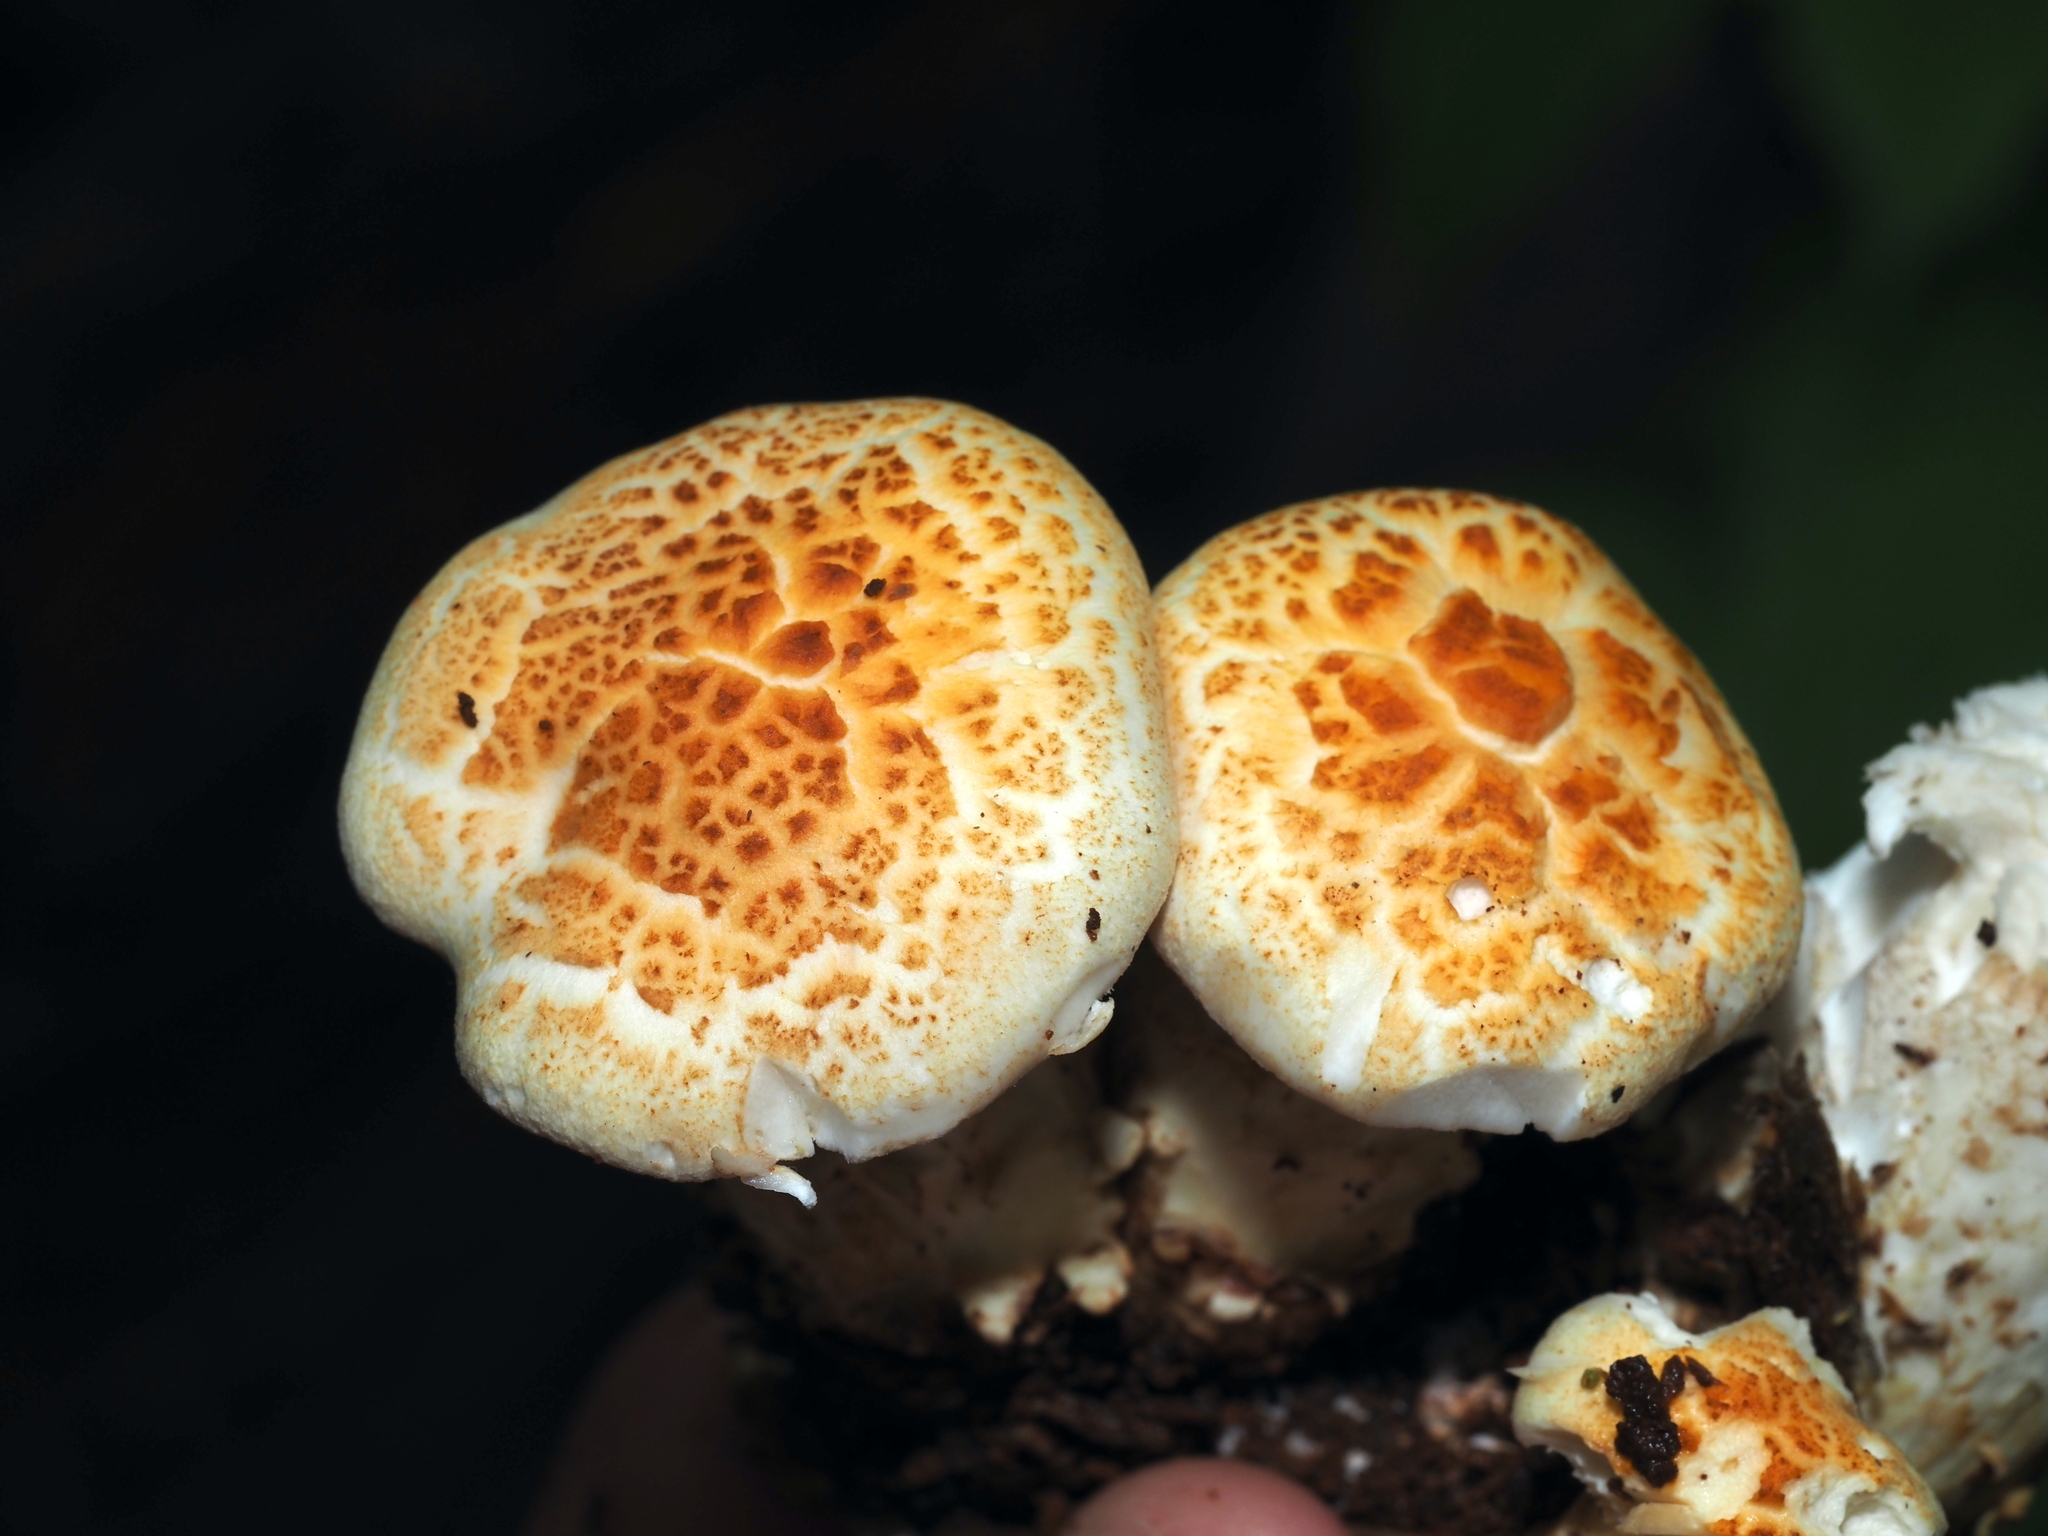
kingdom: Fungi
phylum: Basidiomycota
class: Agaricomycetes
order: Gloeophyllales
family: Gloeophyllaceae
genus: Neolentinus
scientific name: Neolentinus lepideus
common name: Scaly sawgill
